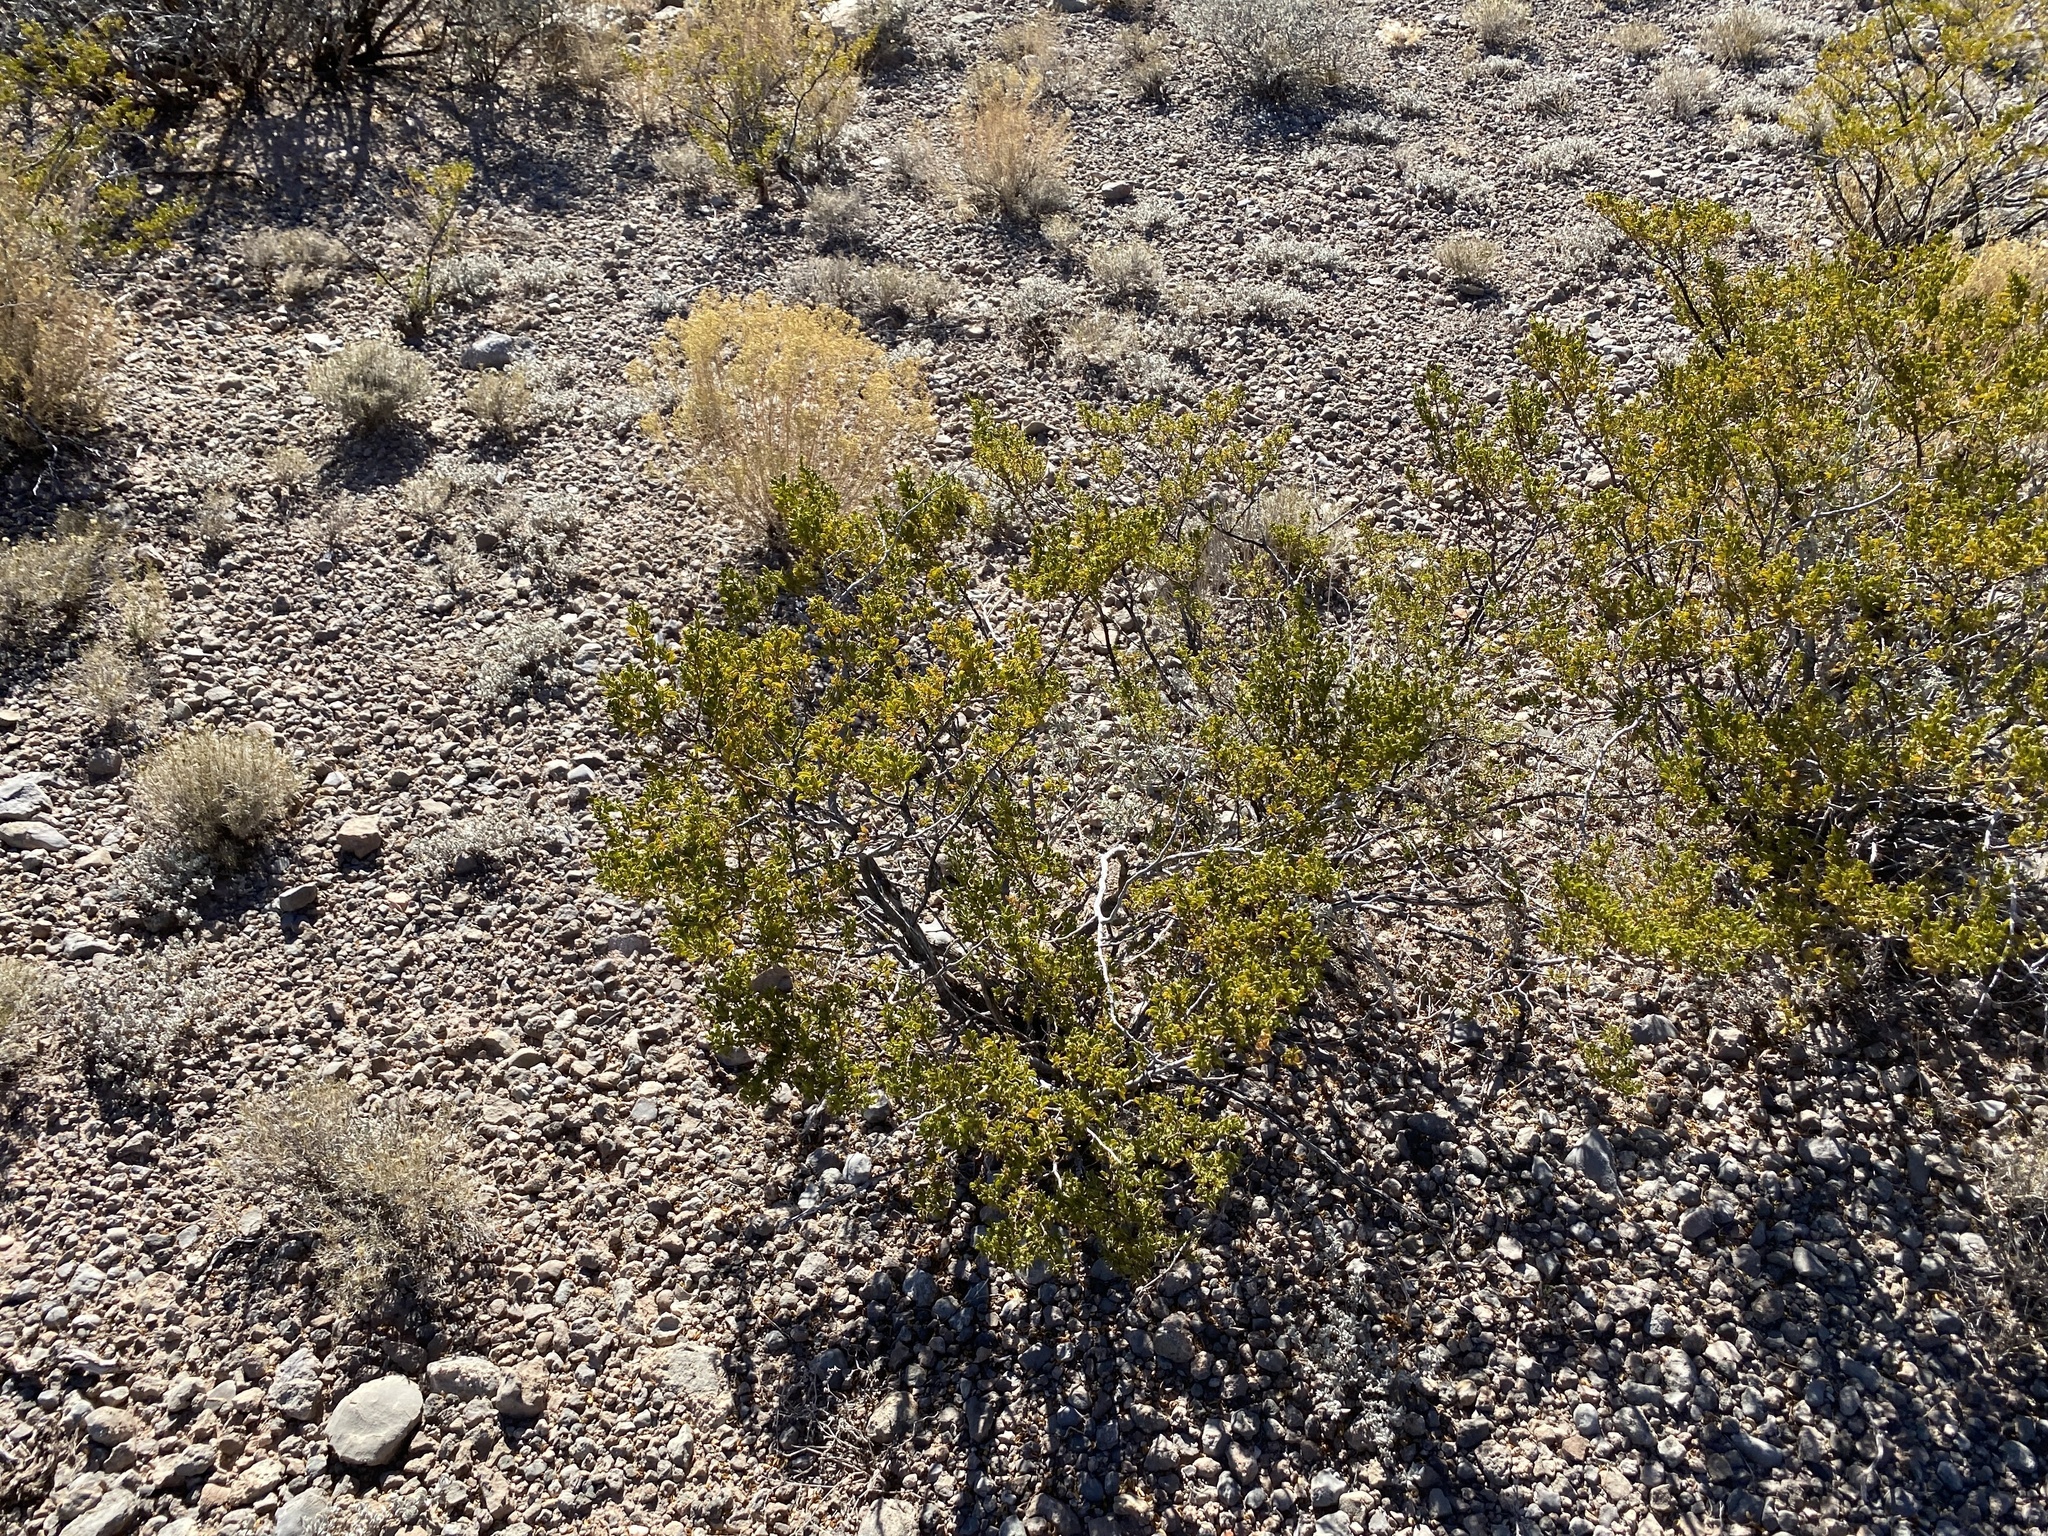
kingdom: Plantae
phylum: Tracheophyta
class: Magnoliopsida
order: Zygophyllales
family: Zygophyllaceae
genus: Larrea
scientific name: Larrea tridentata
